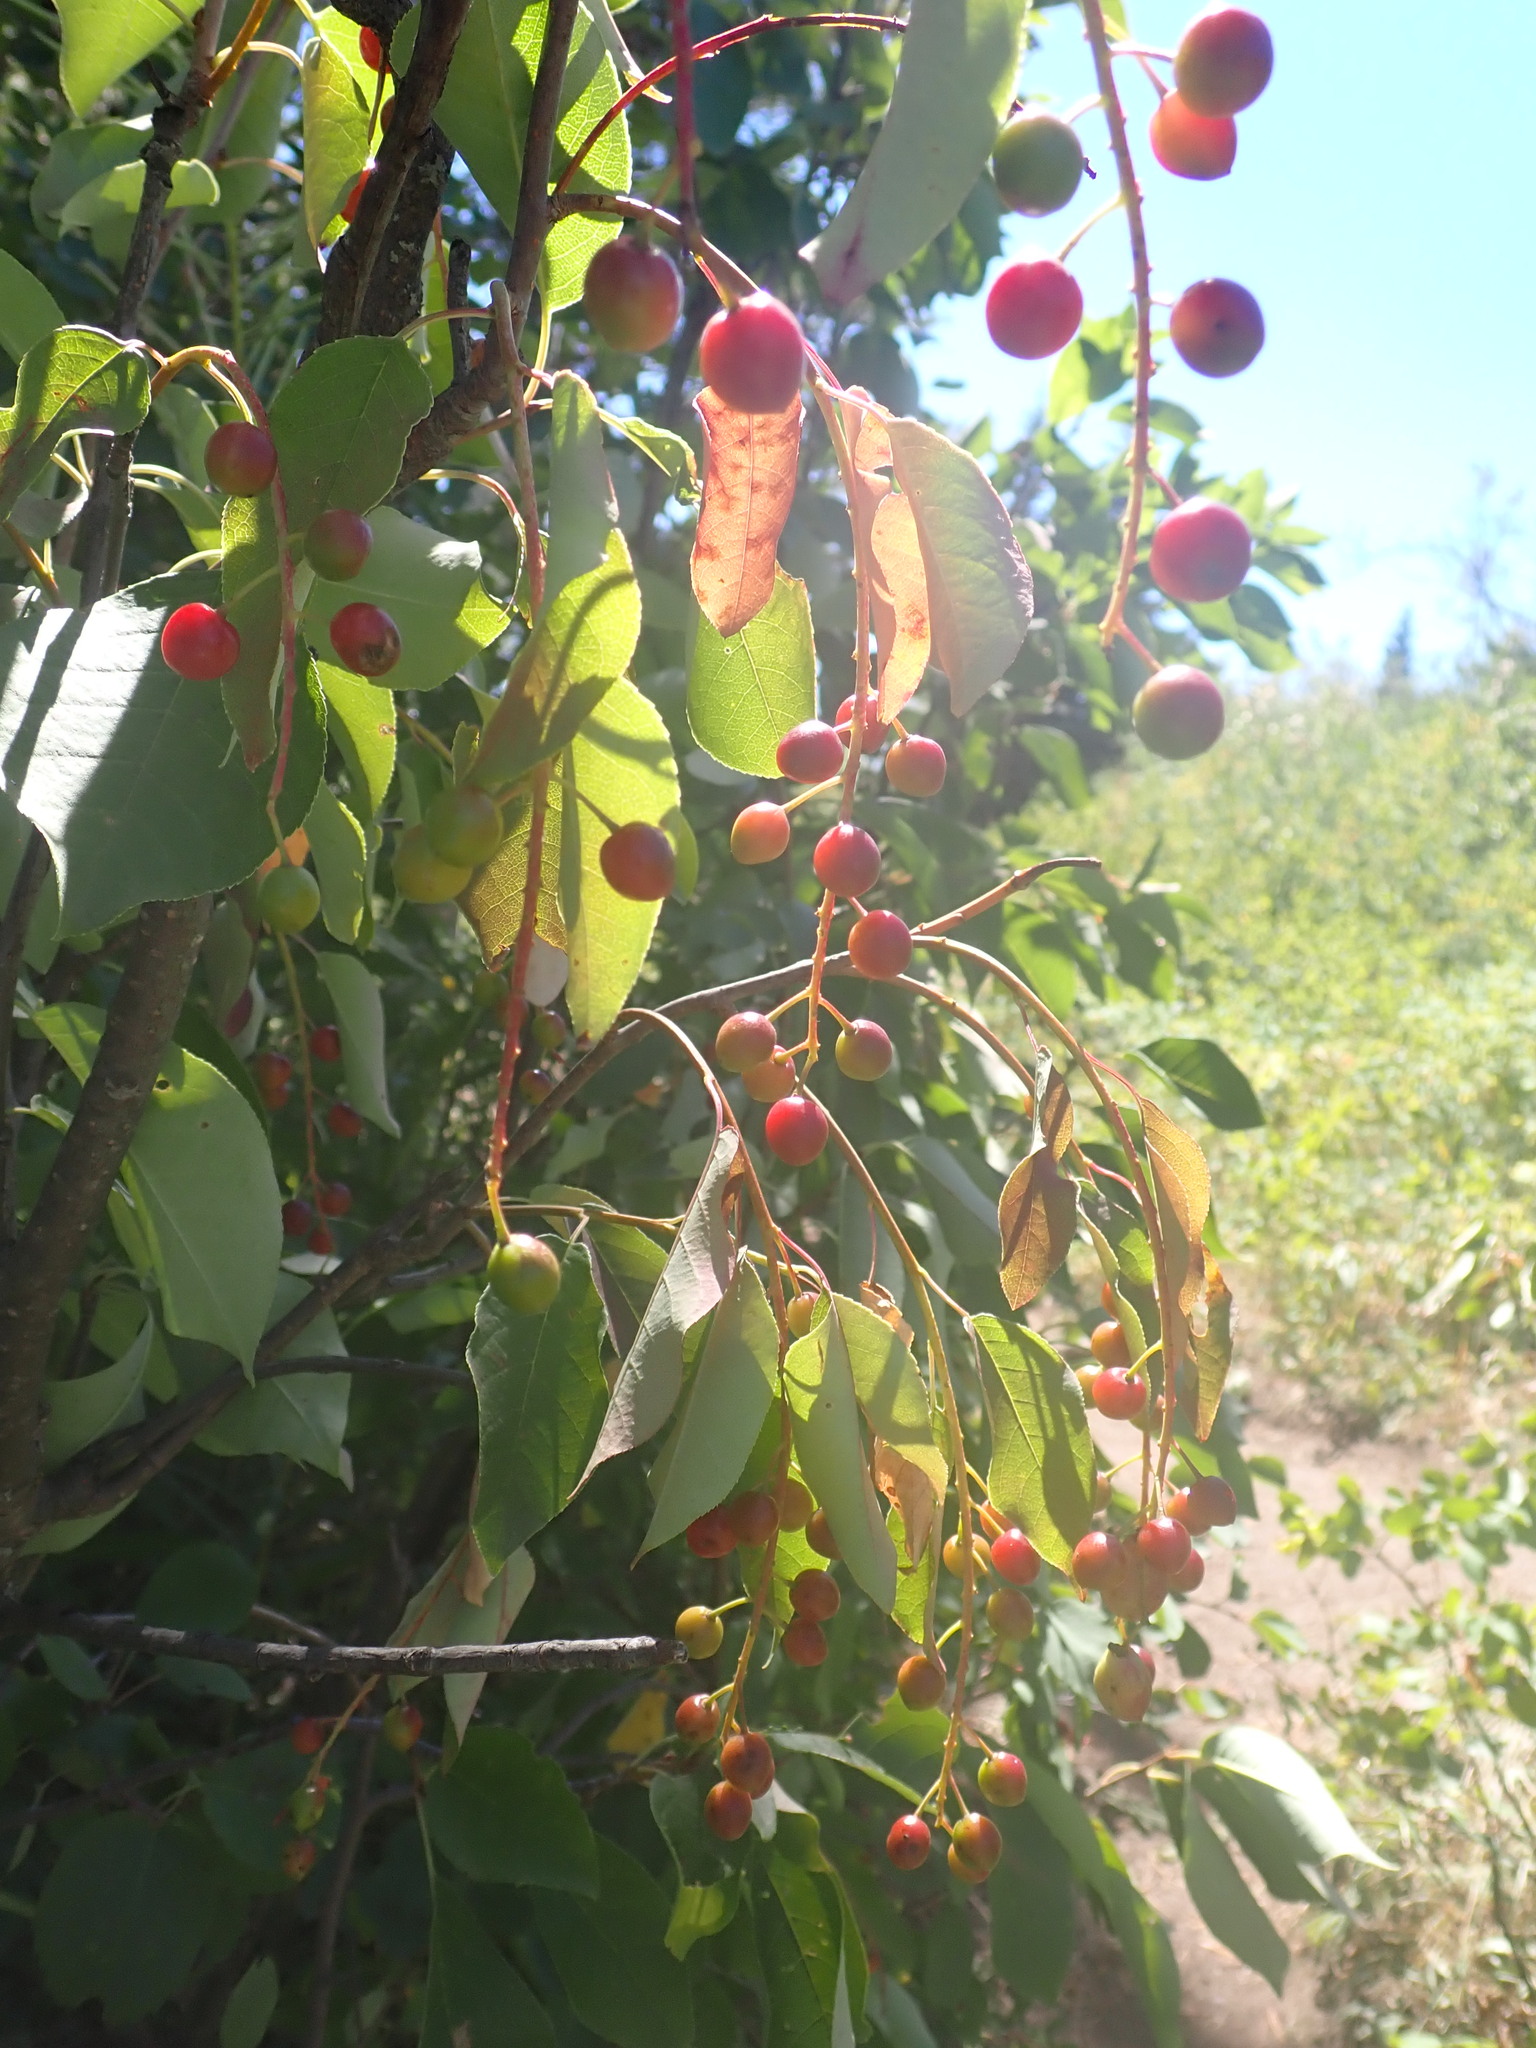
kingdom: Plantae
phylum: Tracheophyta
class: Magnoliopsida
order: Rosales
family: Rosaceae
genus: Prunus
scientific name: Prunus virginiana
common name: Chokecherry
